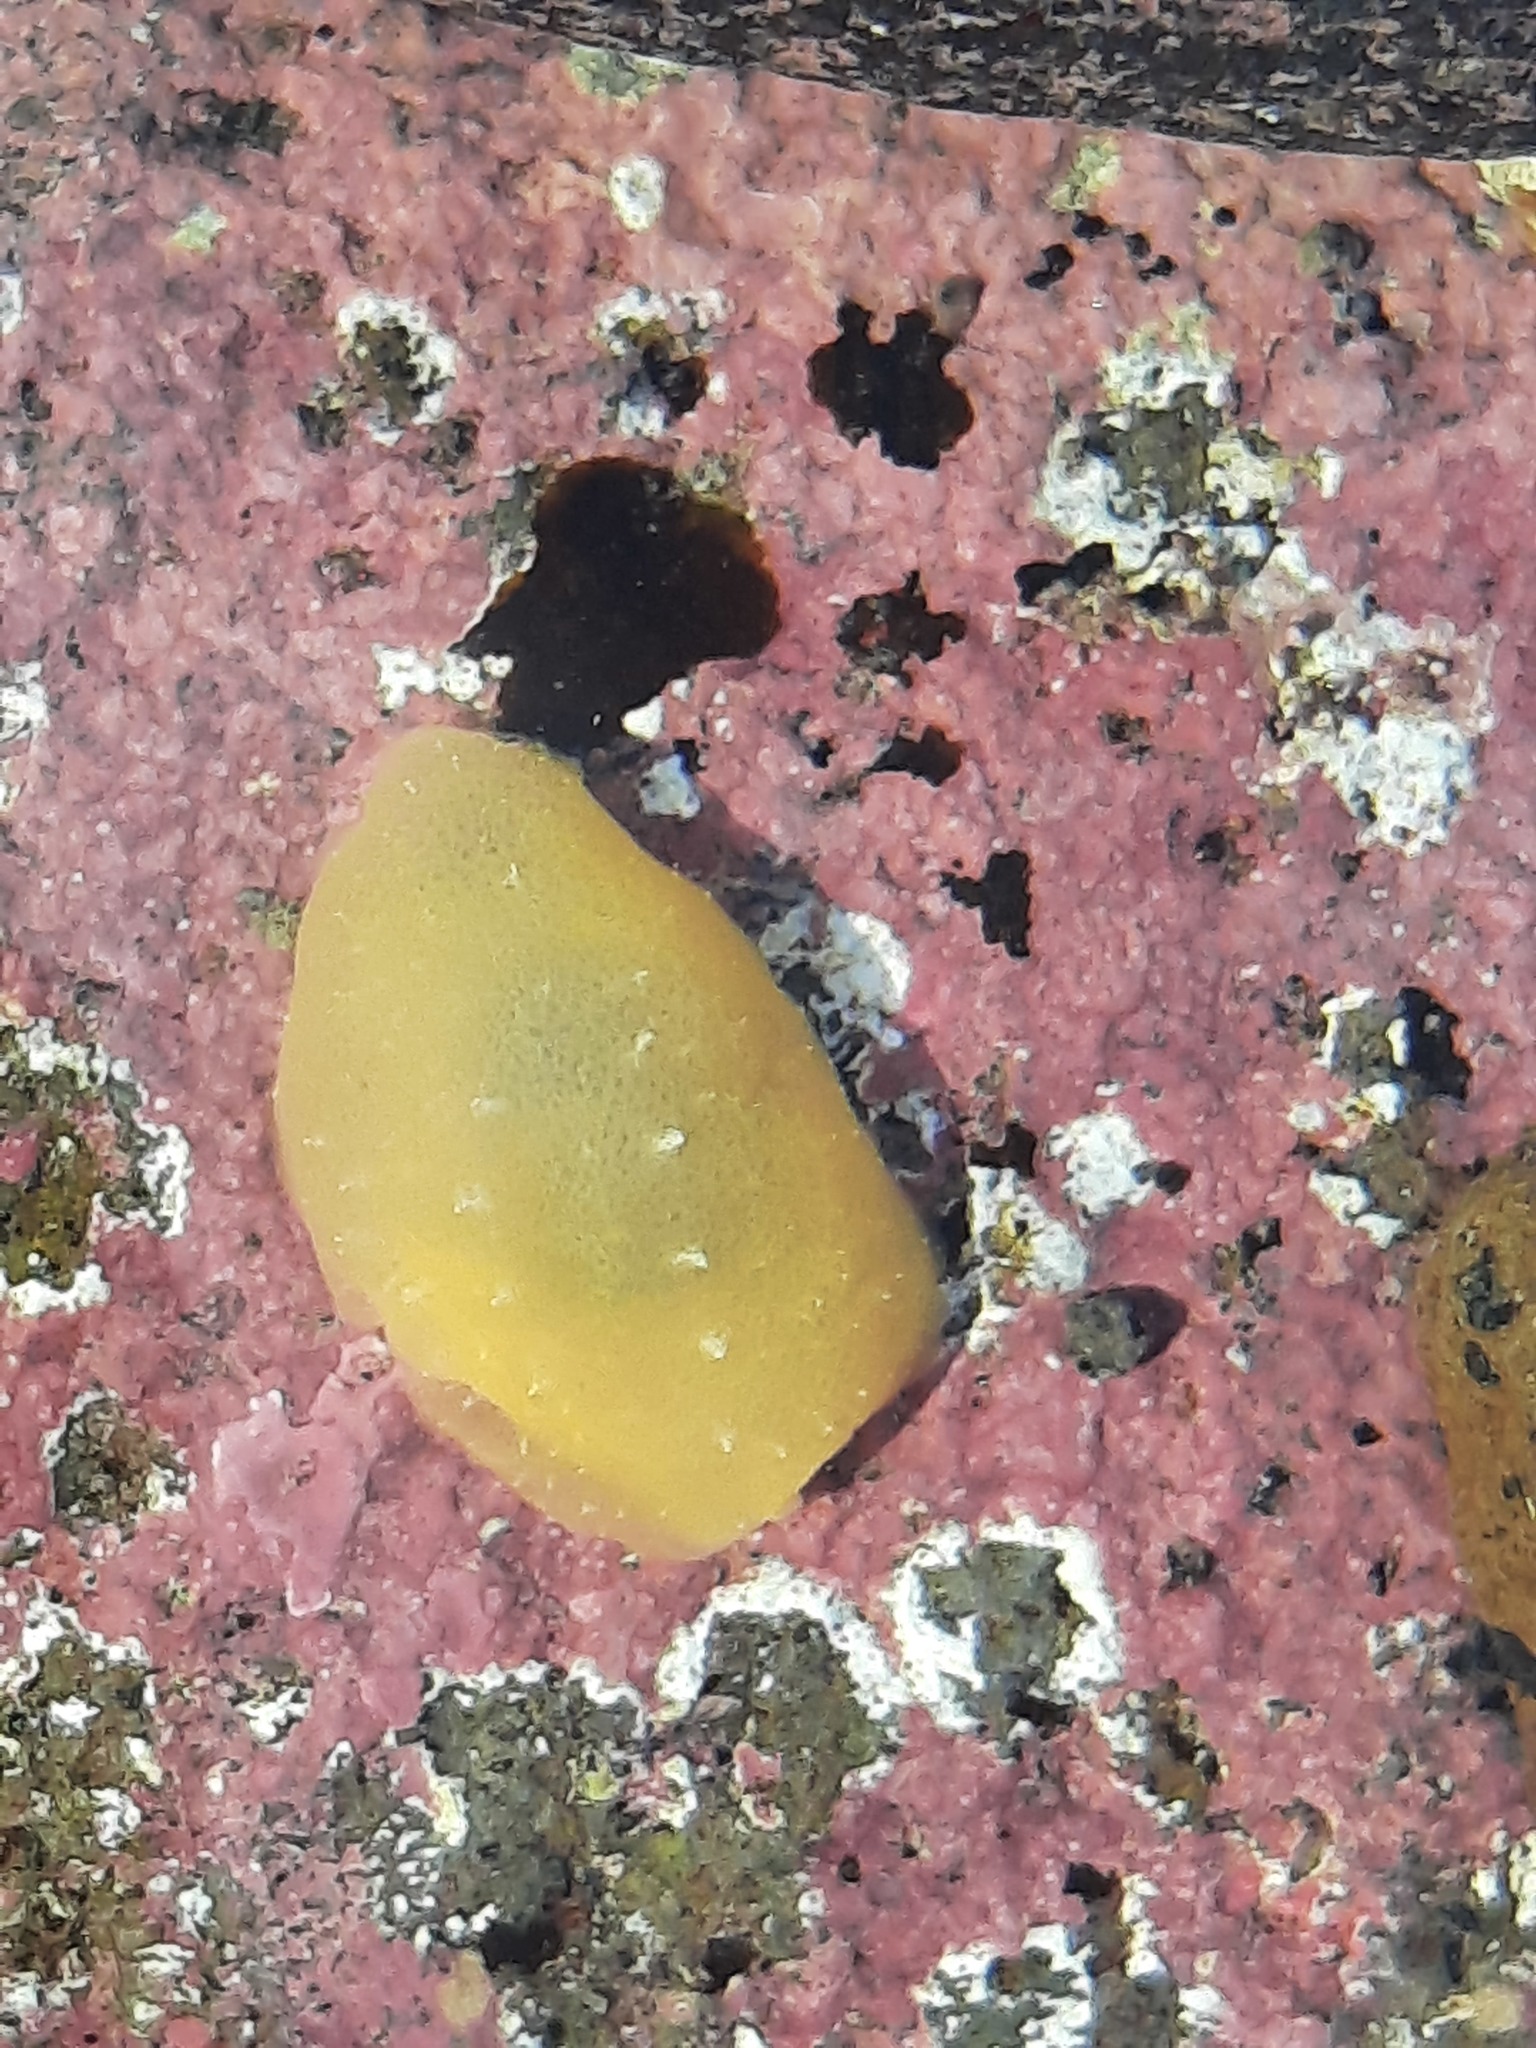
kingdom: Animalia
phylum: Mollusca
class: Gastropoda
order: Pleurobranchida
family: Pleurobranchidae
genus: Berthella
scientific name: Berthella medietas
